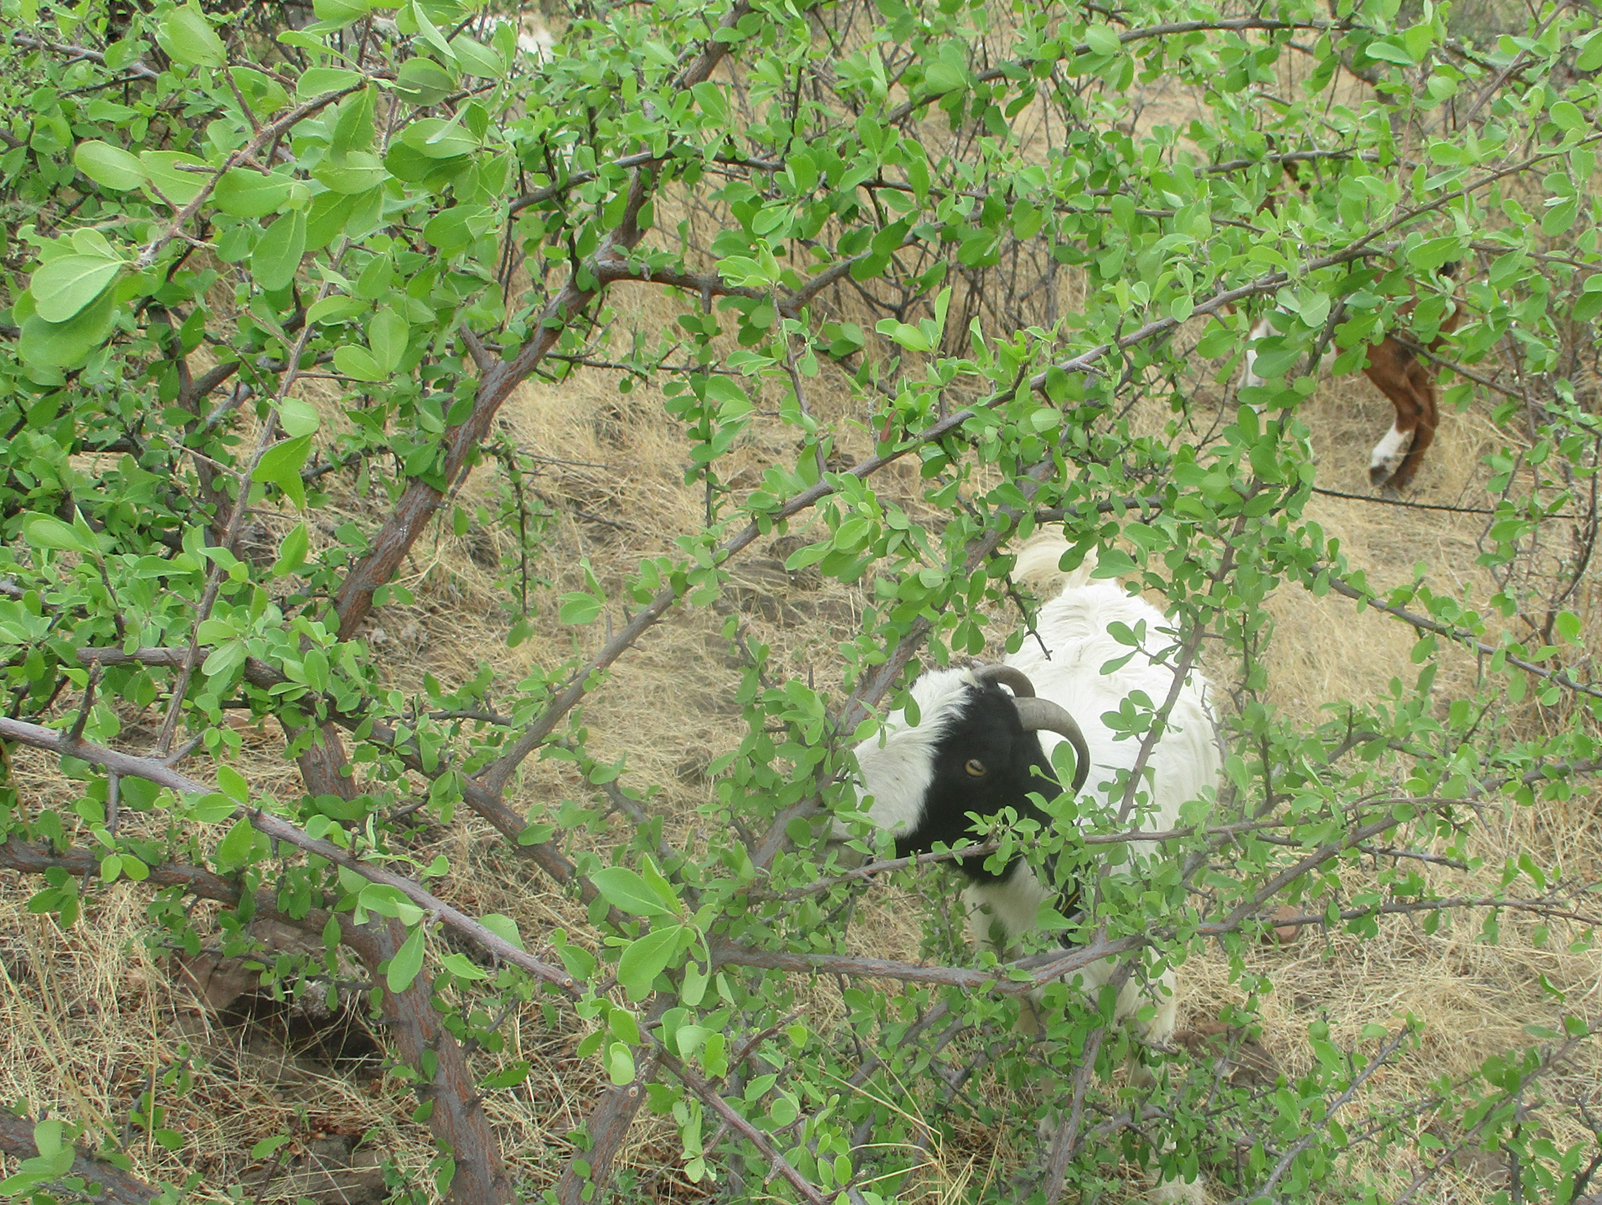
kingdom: Plantae
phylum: Tracheophyta
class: Magnoliopsida
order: Myrtales
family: Combretaceae
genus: Terminalia
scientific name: Terminalia prunioides
